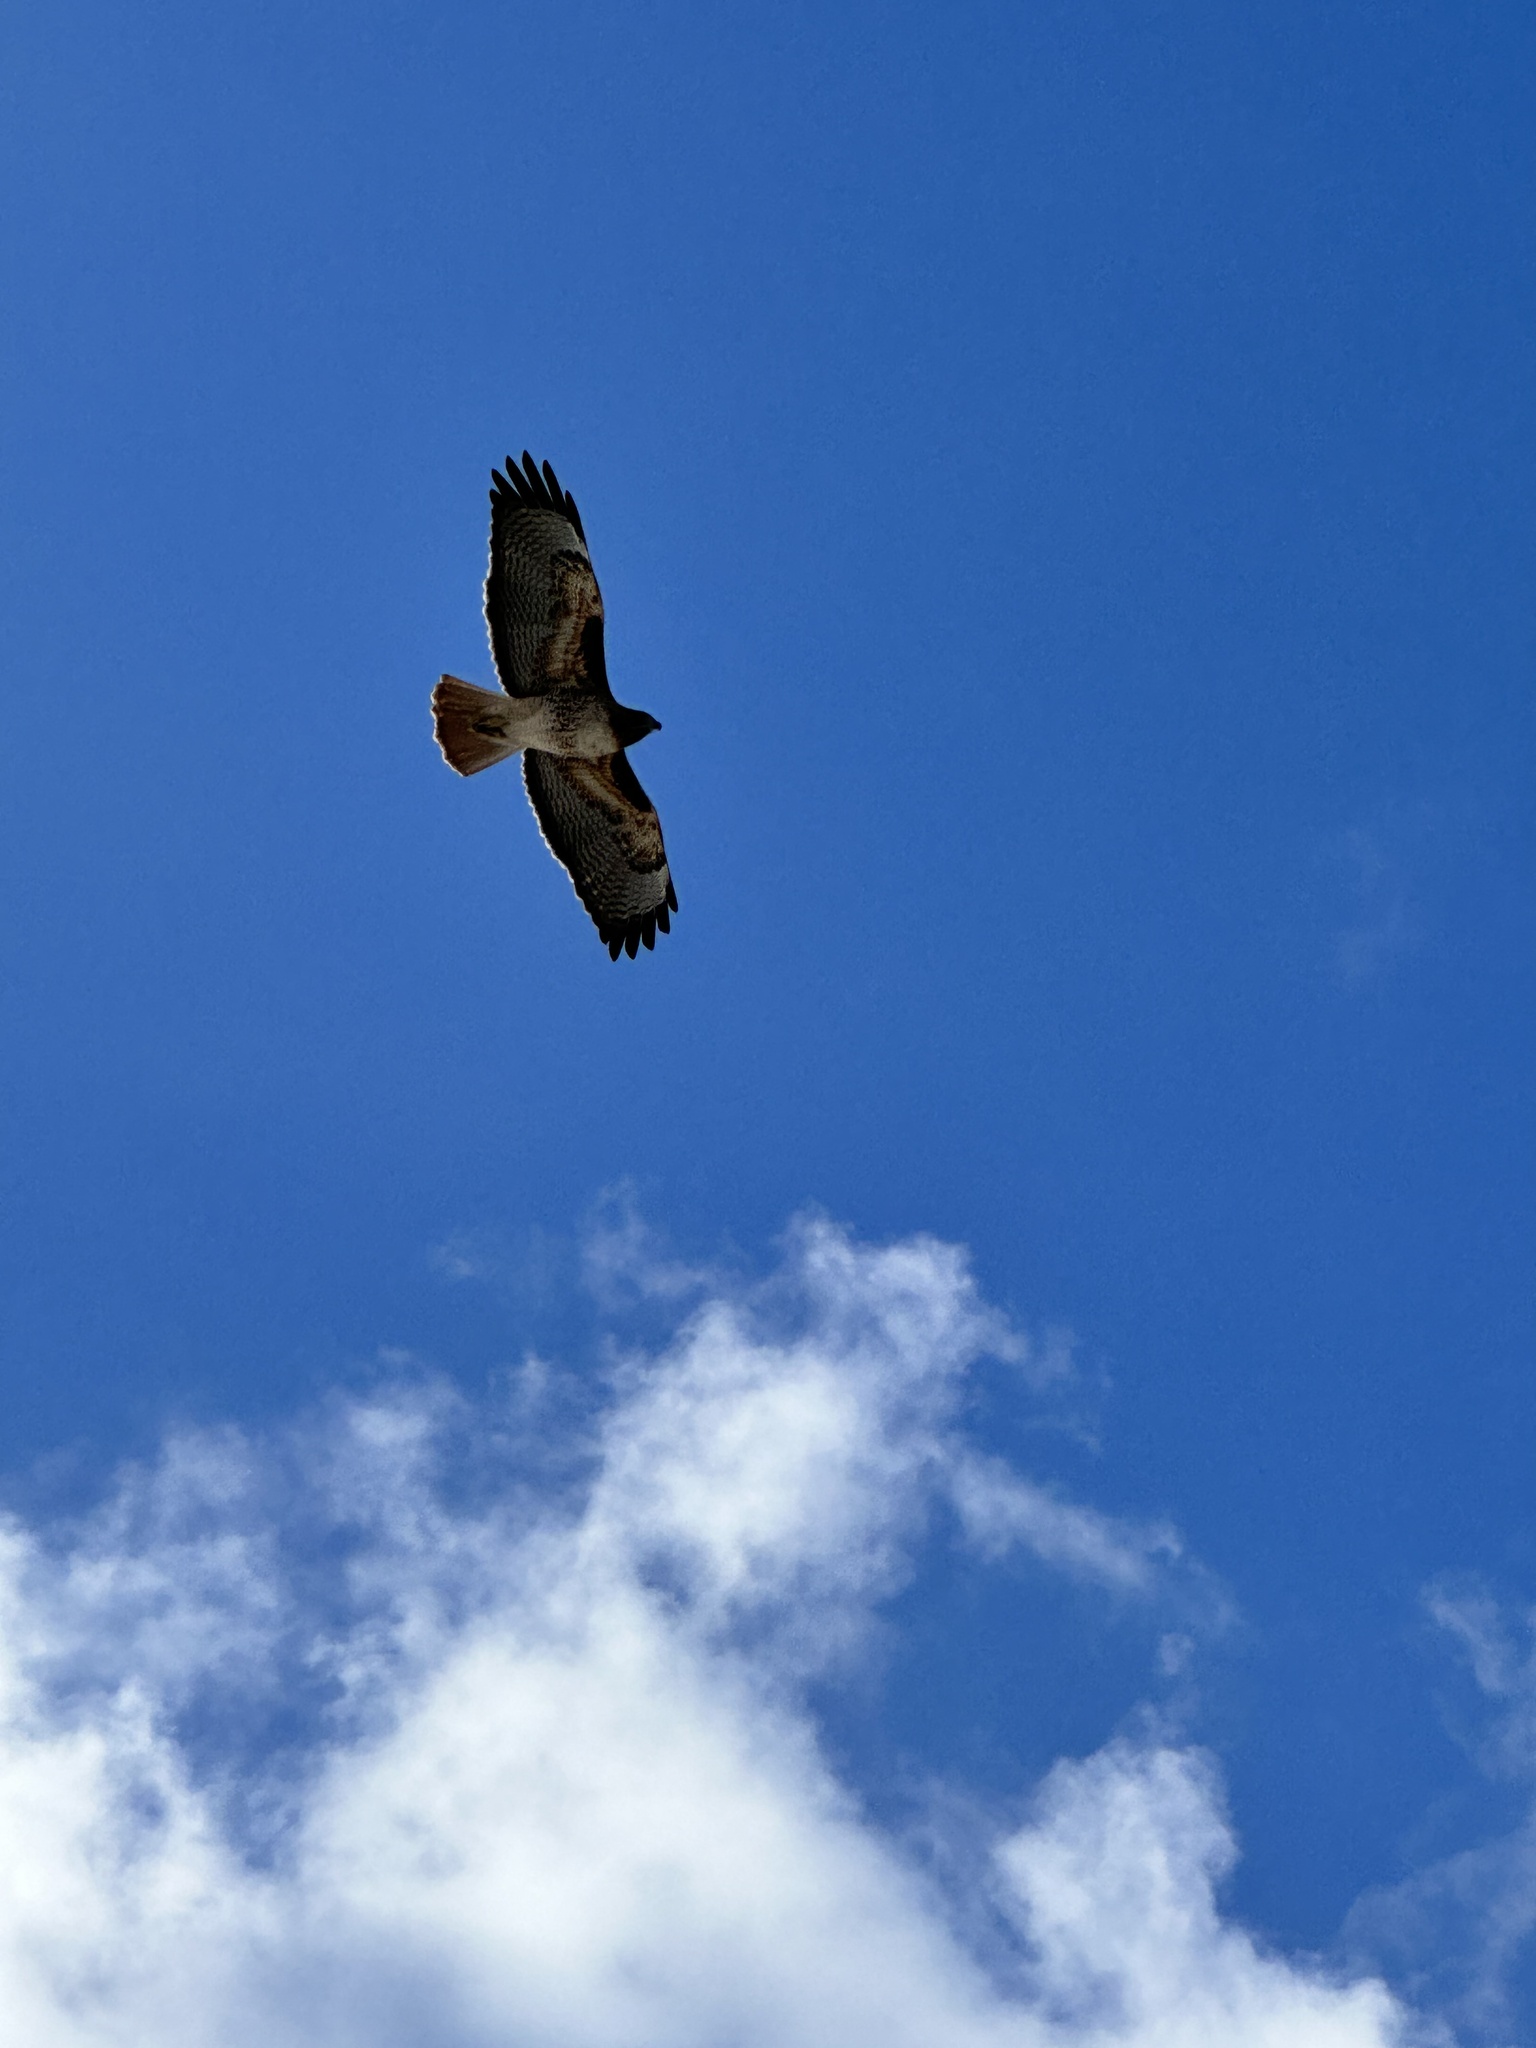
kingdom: Animalia
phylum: Chordata
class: Aves
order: Accipitriformes
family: Accipitridae
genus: Buteo
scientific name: Buteo jamaicensis
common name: Red-tailed hawk
